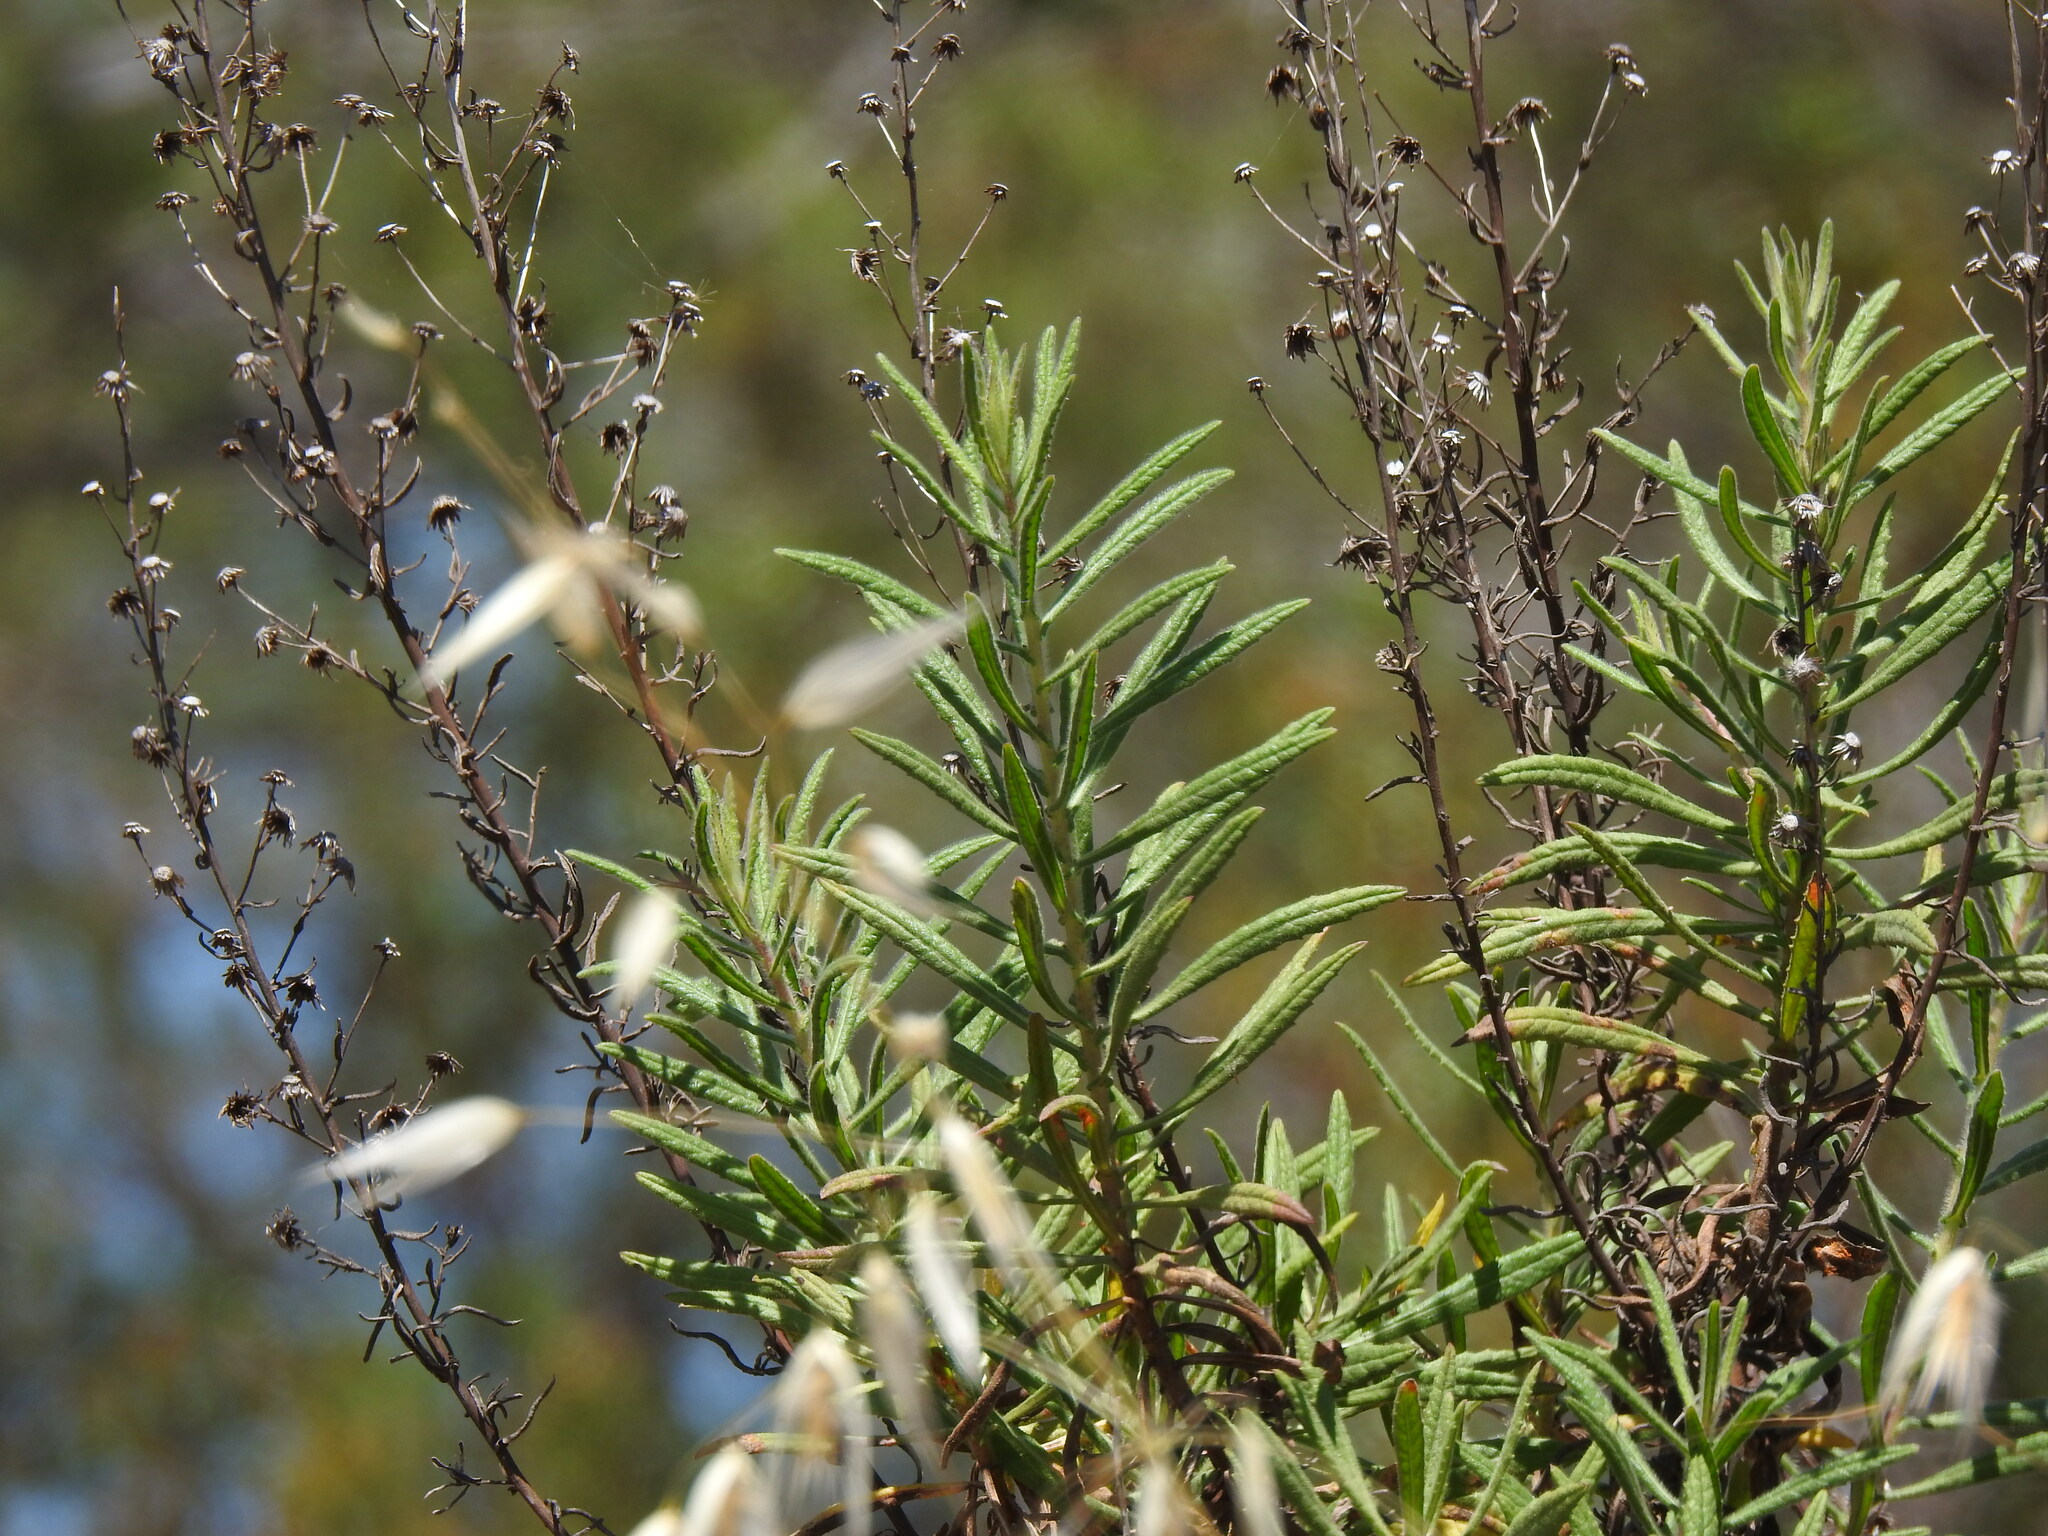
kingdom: Plantae
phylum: Tracheophyta
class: Magnoliopsida
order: Asterales
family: Asteraceae
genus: Dittrichia
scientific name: Dittrichia viscosa
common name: Woody fleabane
